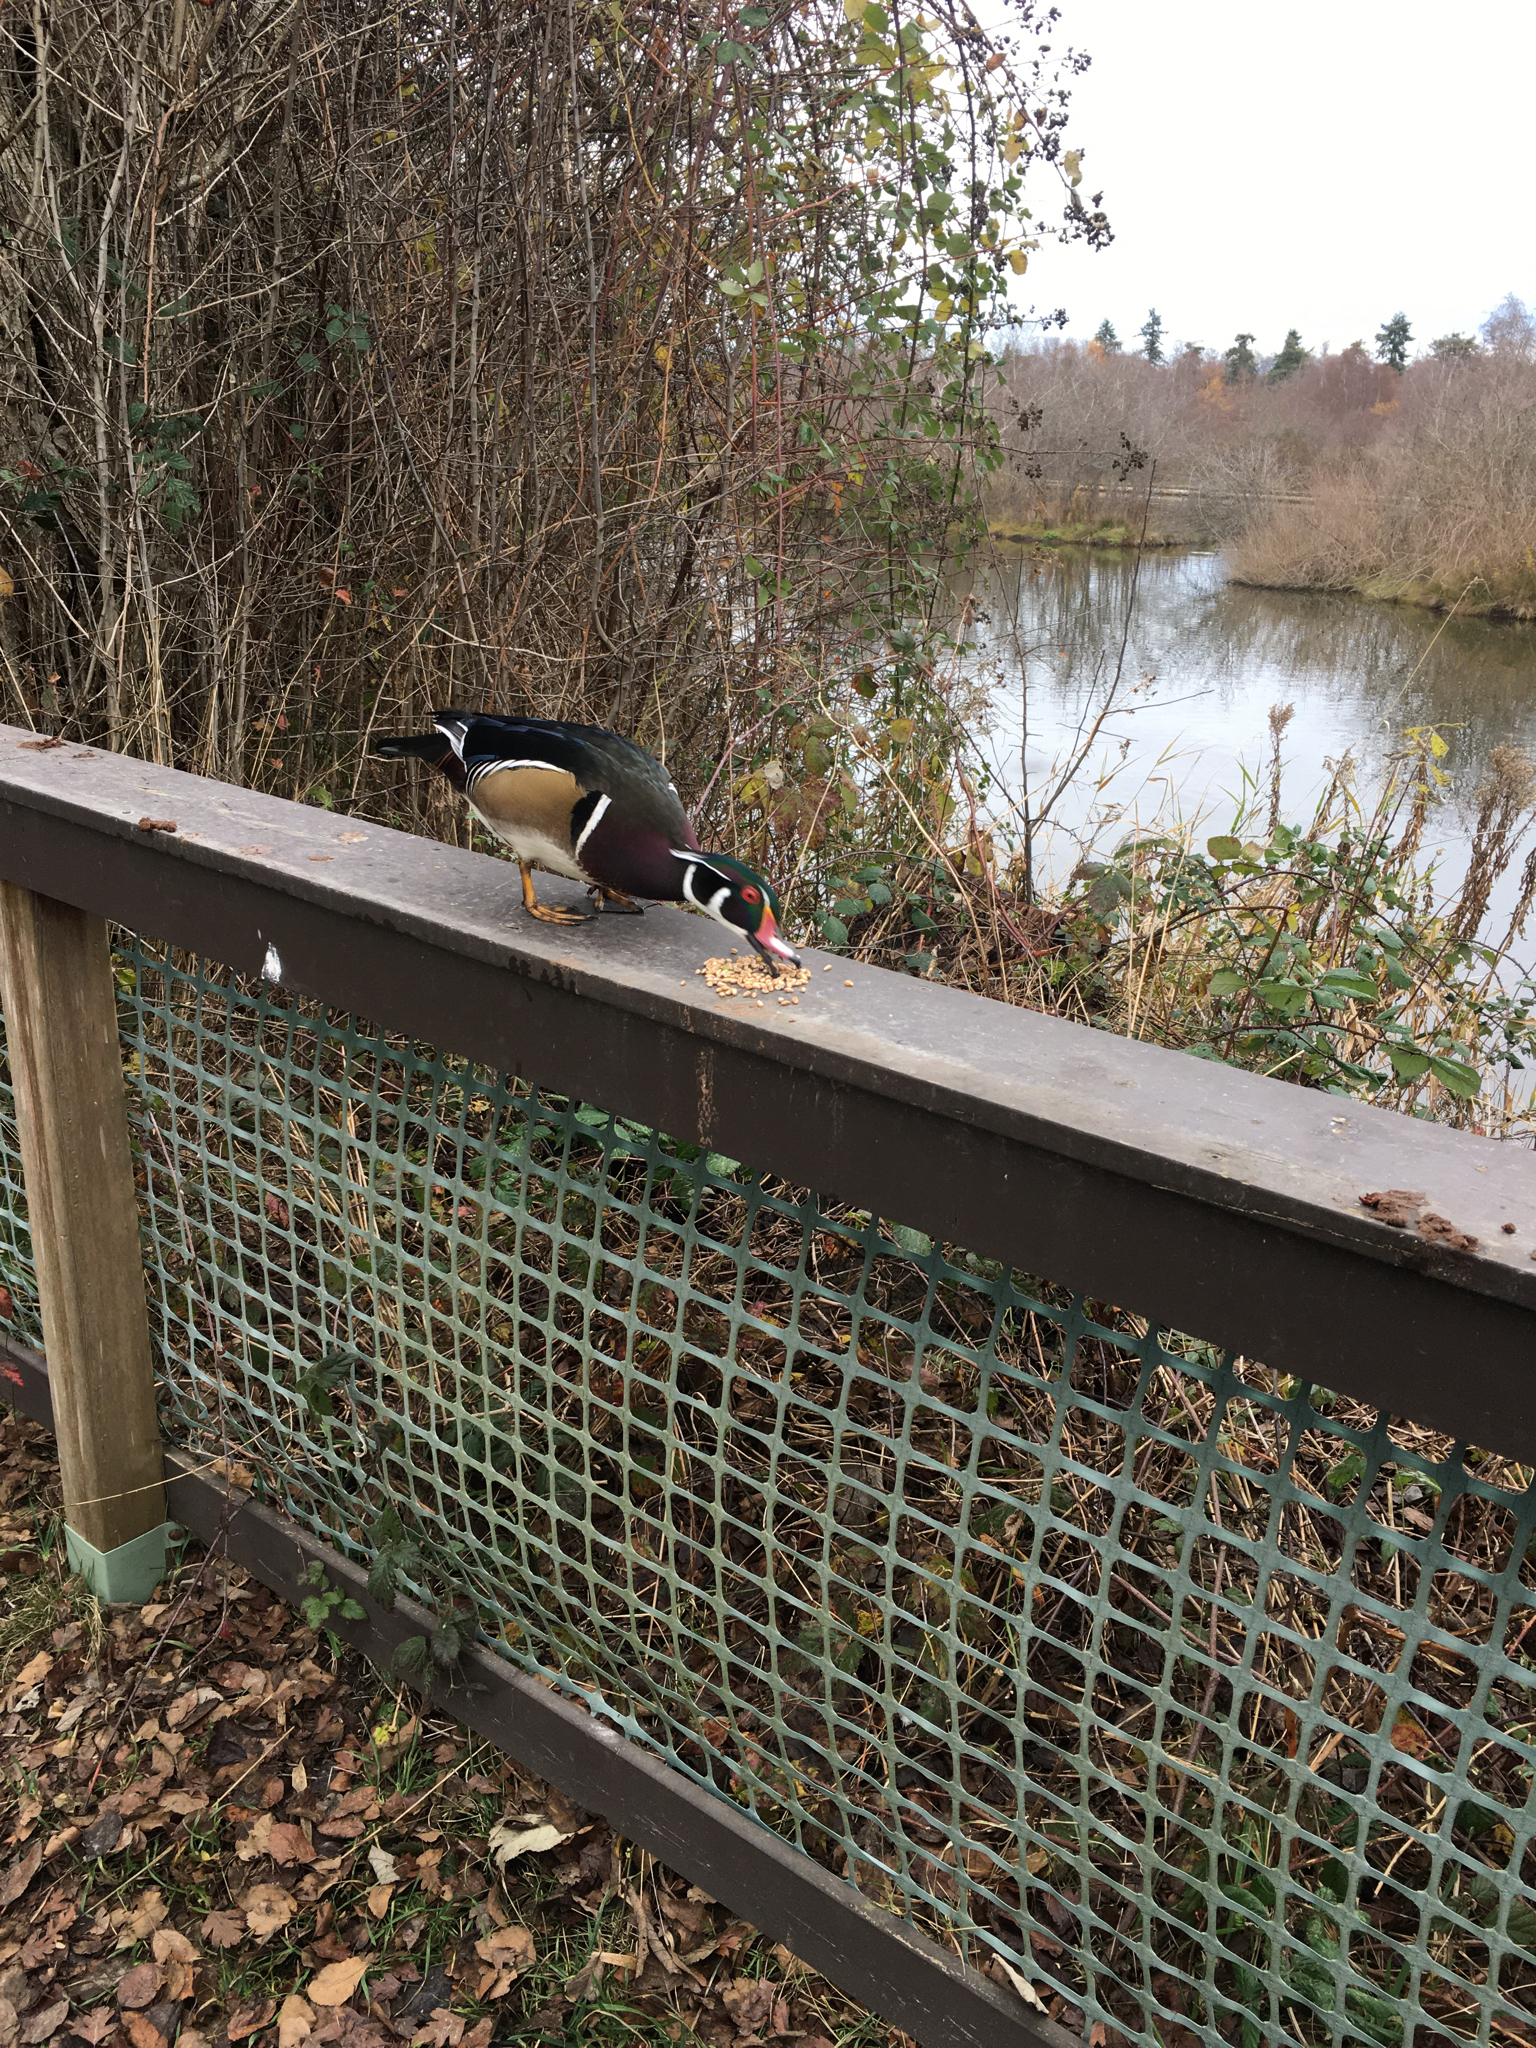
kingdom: Animalia
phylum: Chordata
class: Aves
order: Anseriformes
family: Anatidae
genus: Aix
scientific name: Aix sponsa
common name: Wood duck
